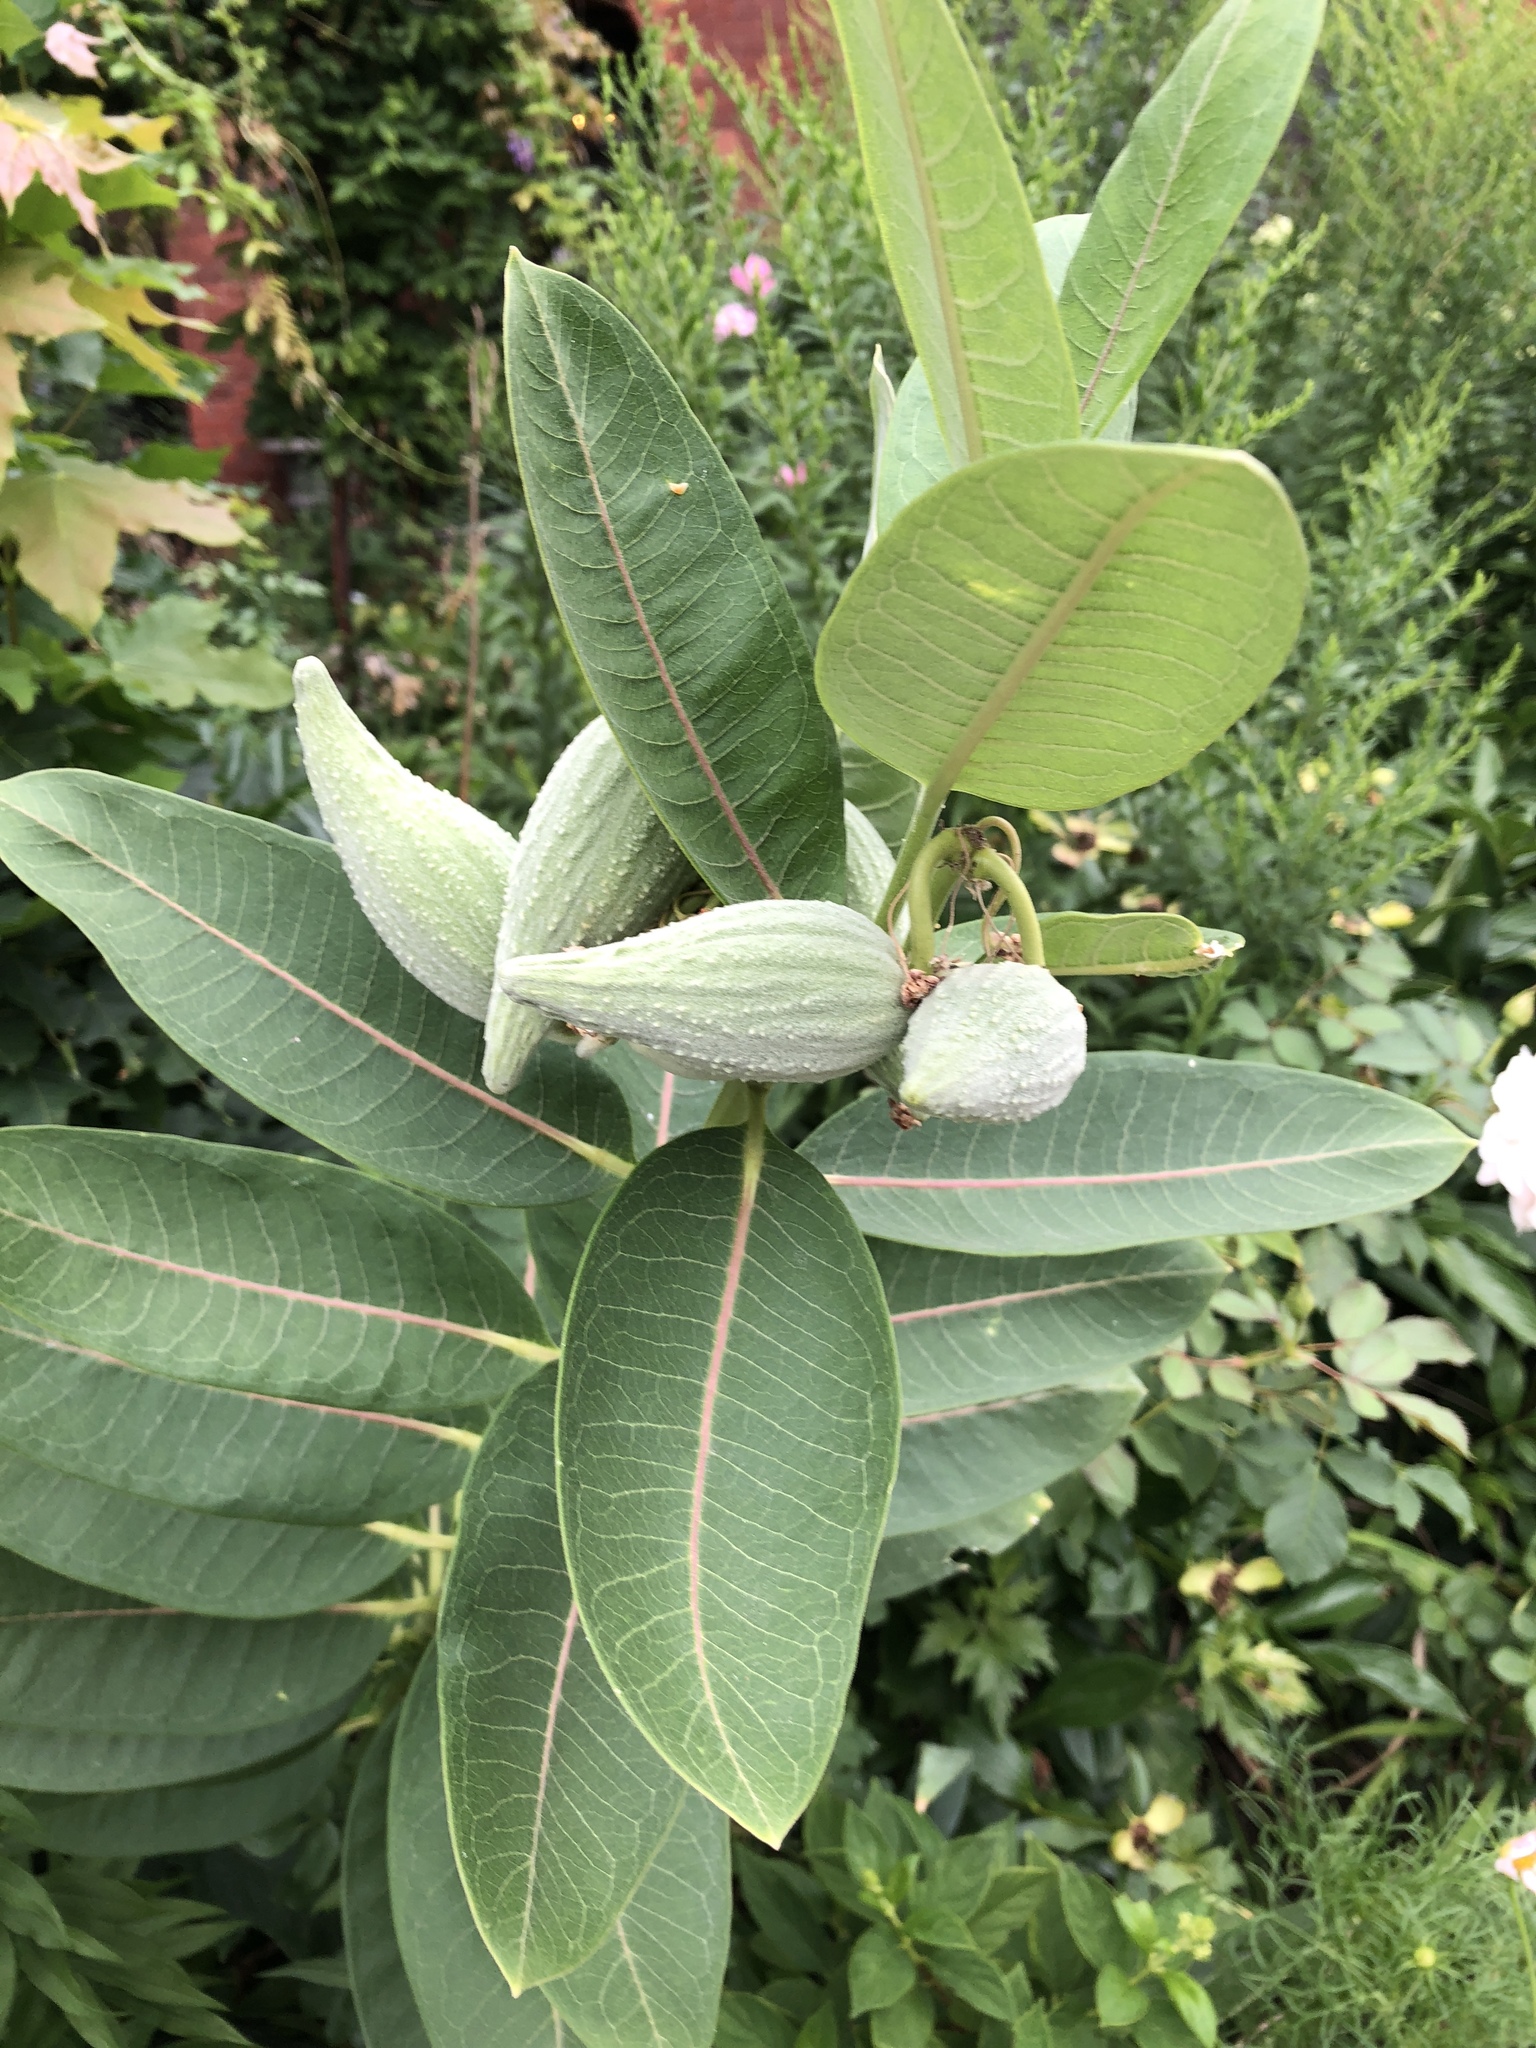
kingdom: Plantae
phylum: Tracheophyta
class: Magnoliopsida
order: Gentianales
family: Apocynaceae
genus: Asclepias
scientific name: Asclepias syriaca
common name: Common milkweed
